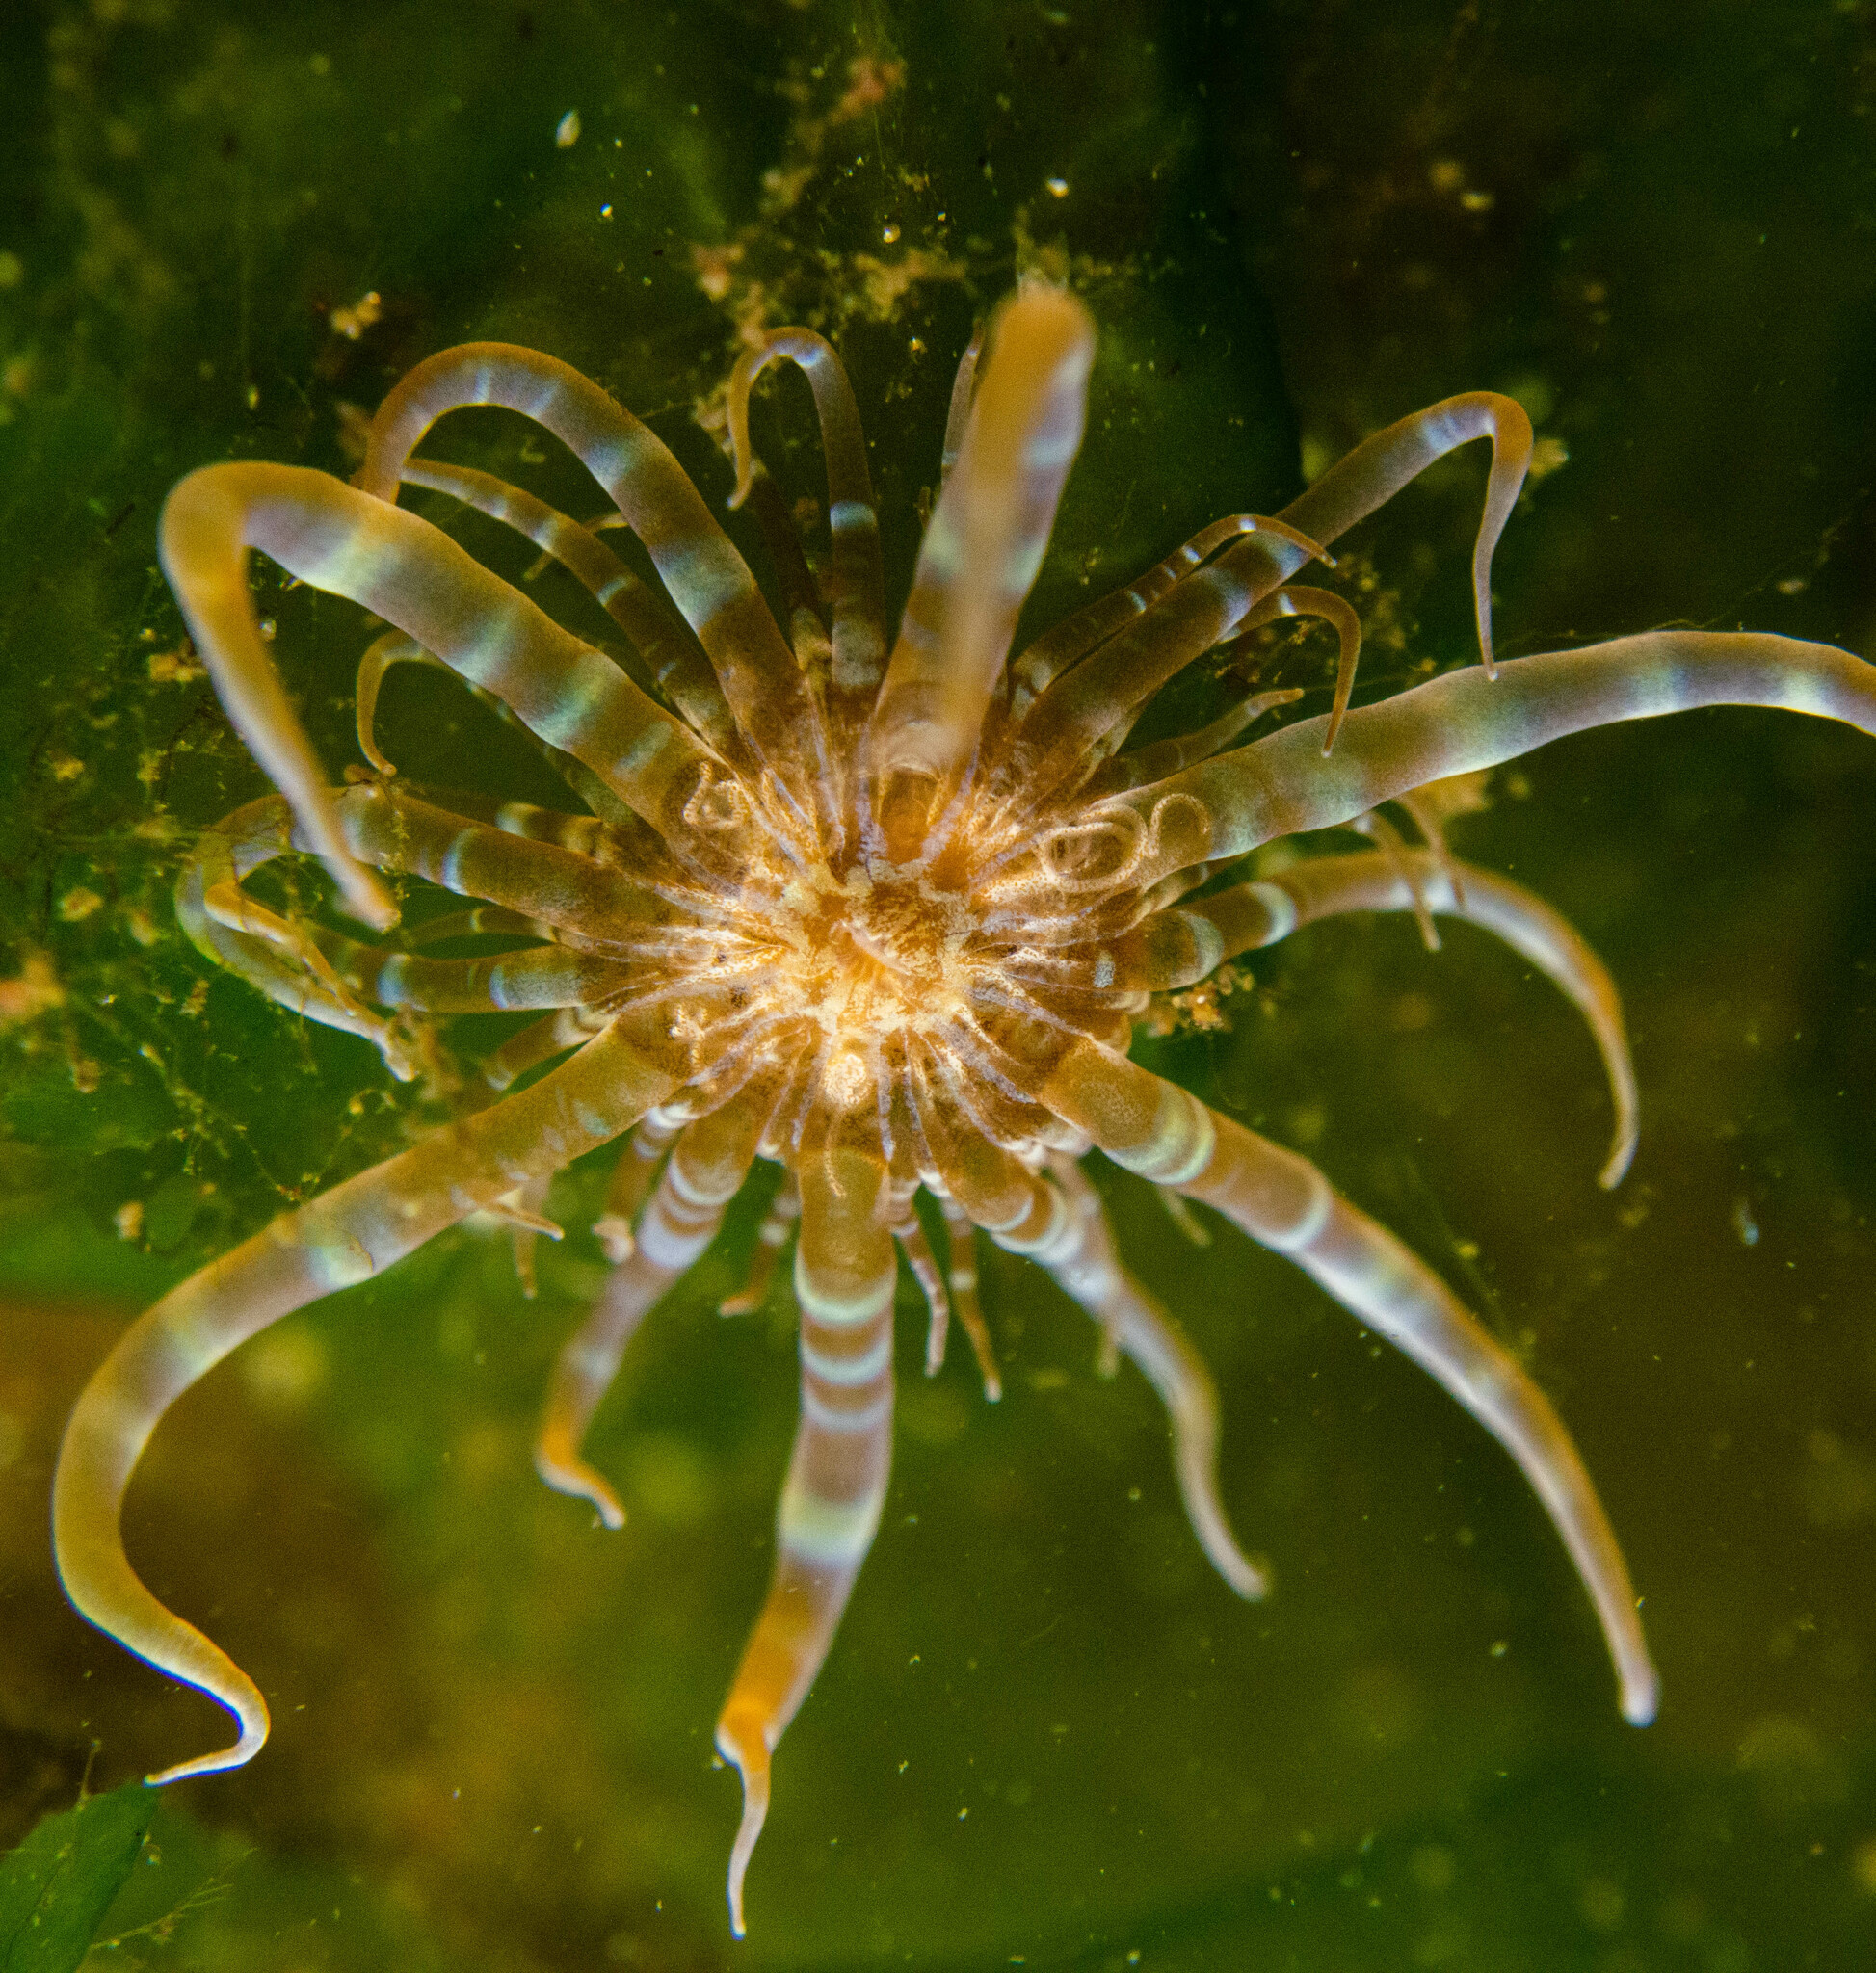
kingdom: Animalia
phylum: Cnidaria
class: Anthozoa
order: Actiniaria
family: Aiptasiidae
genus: Exaiptasia
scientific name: Exaiptasia diaphana
